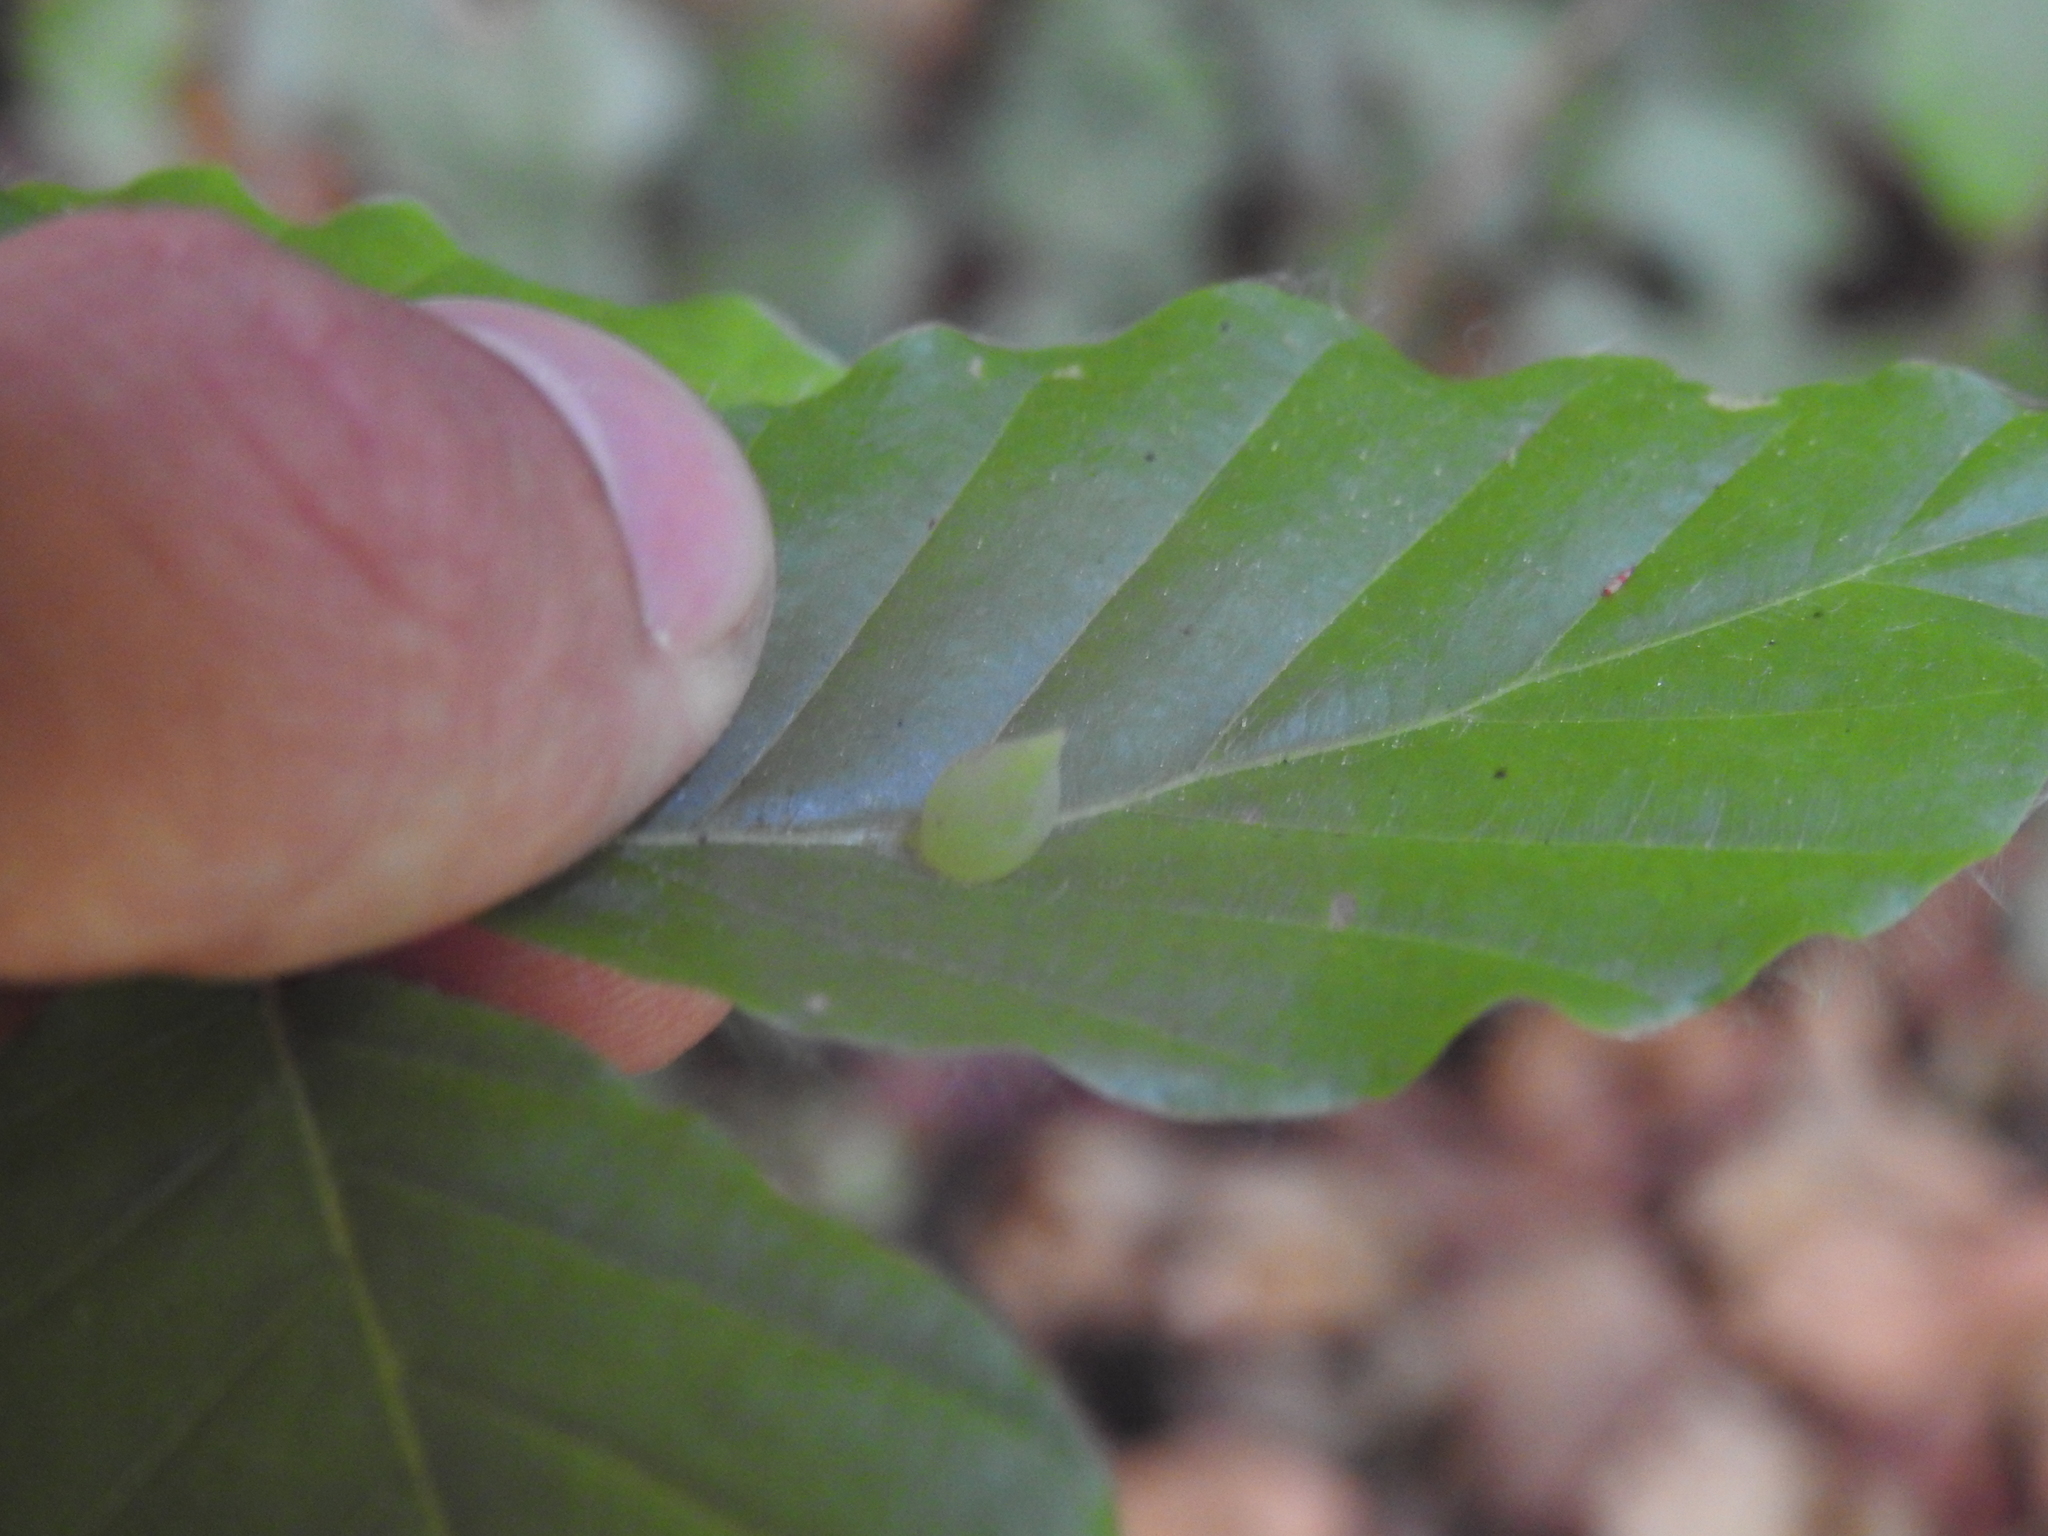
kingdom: Animalia
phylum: Arthropoda
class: Insecta
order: Diptera
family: Cecidomyiidae
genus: Mikiola
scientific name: Mikiola fagi
